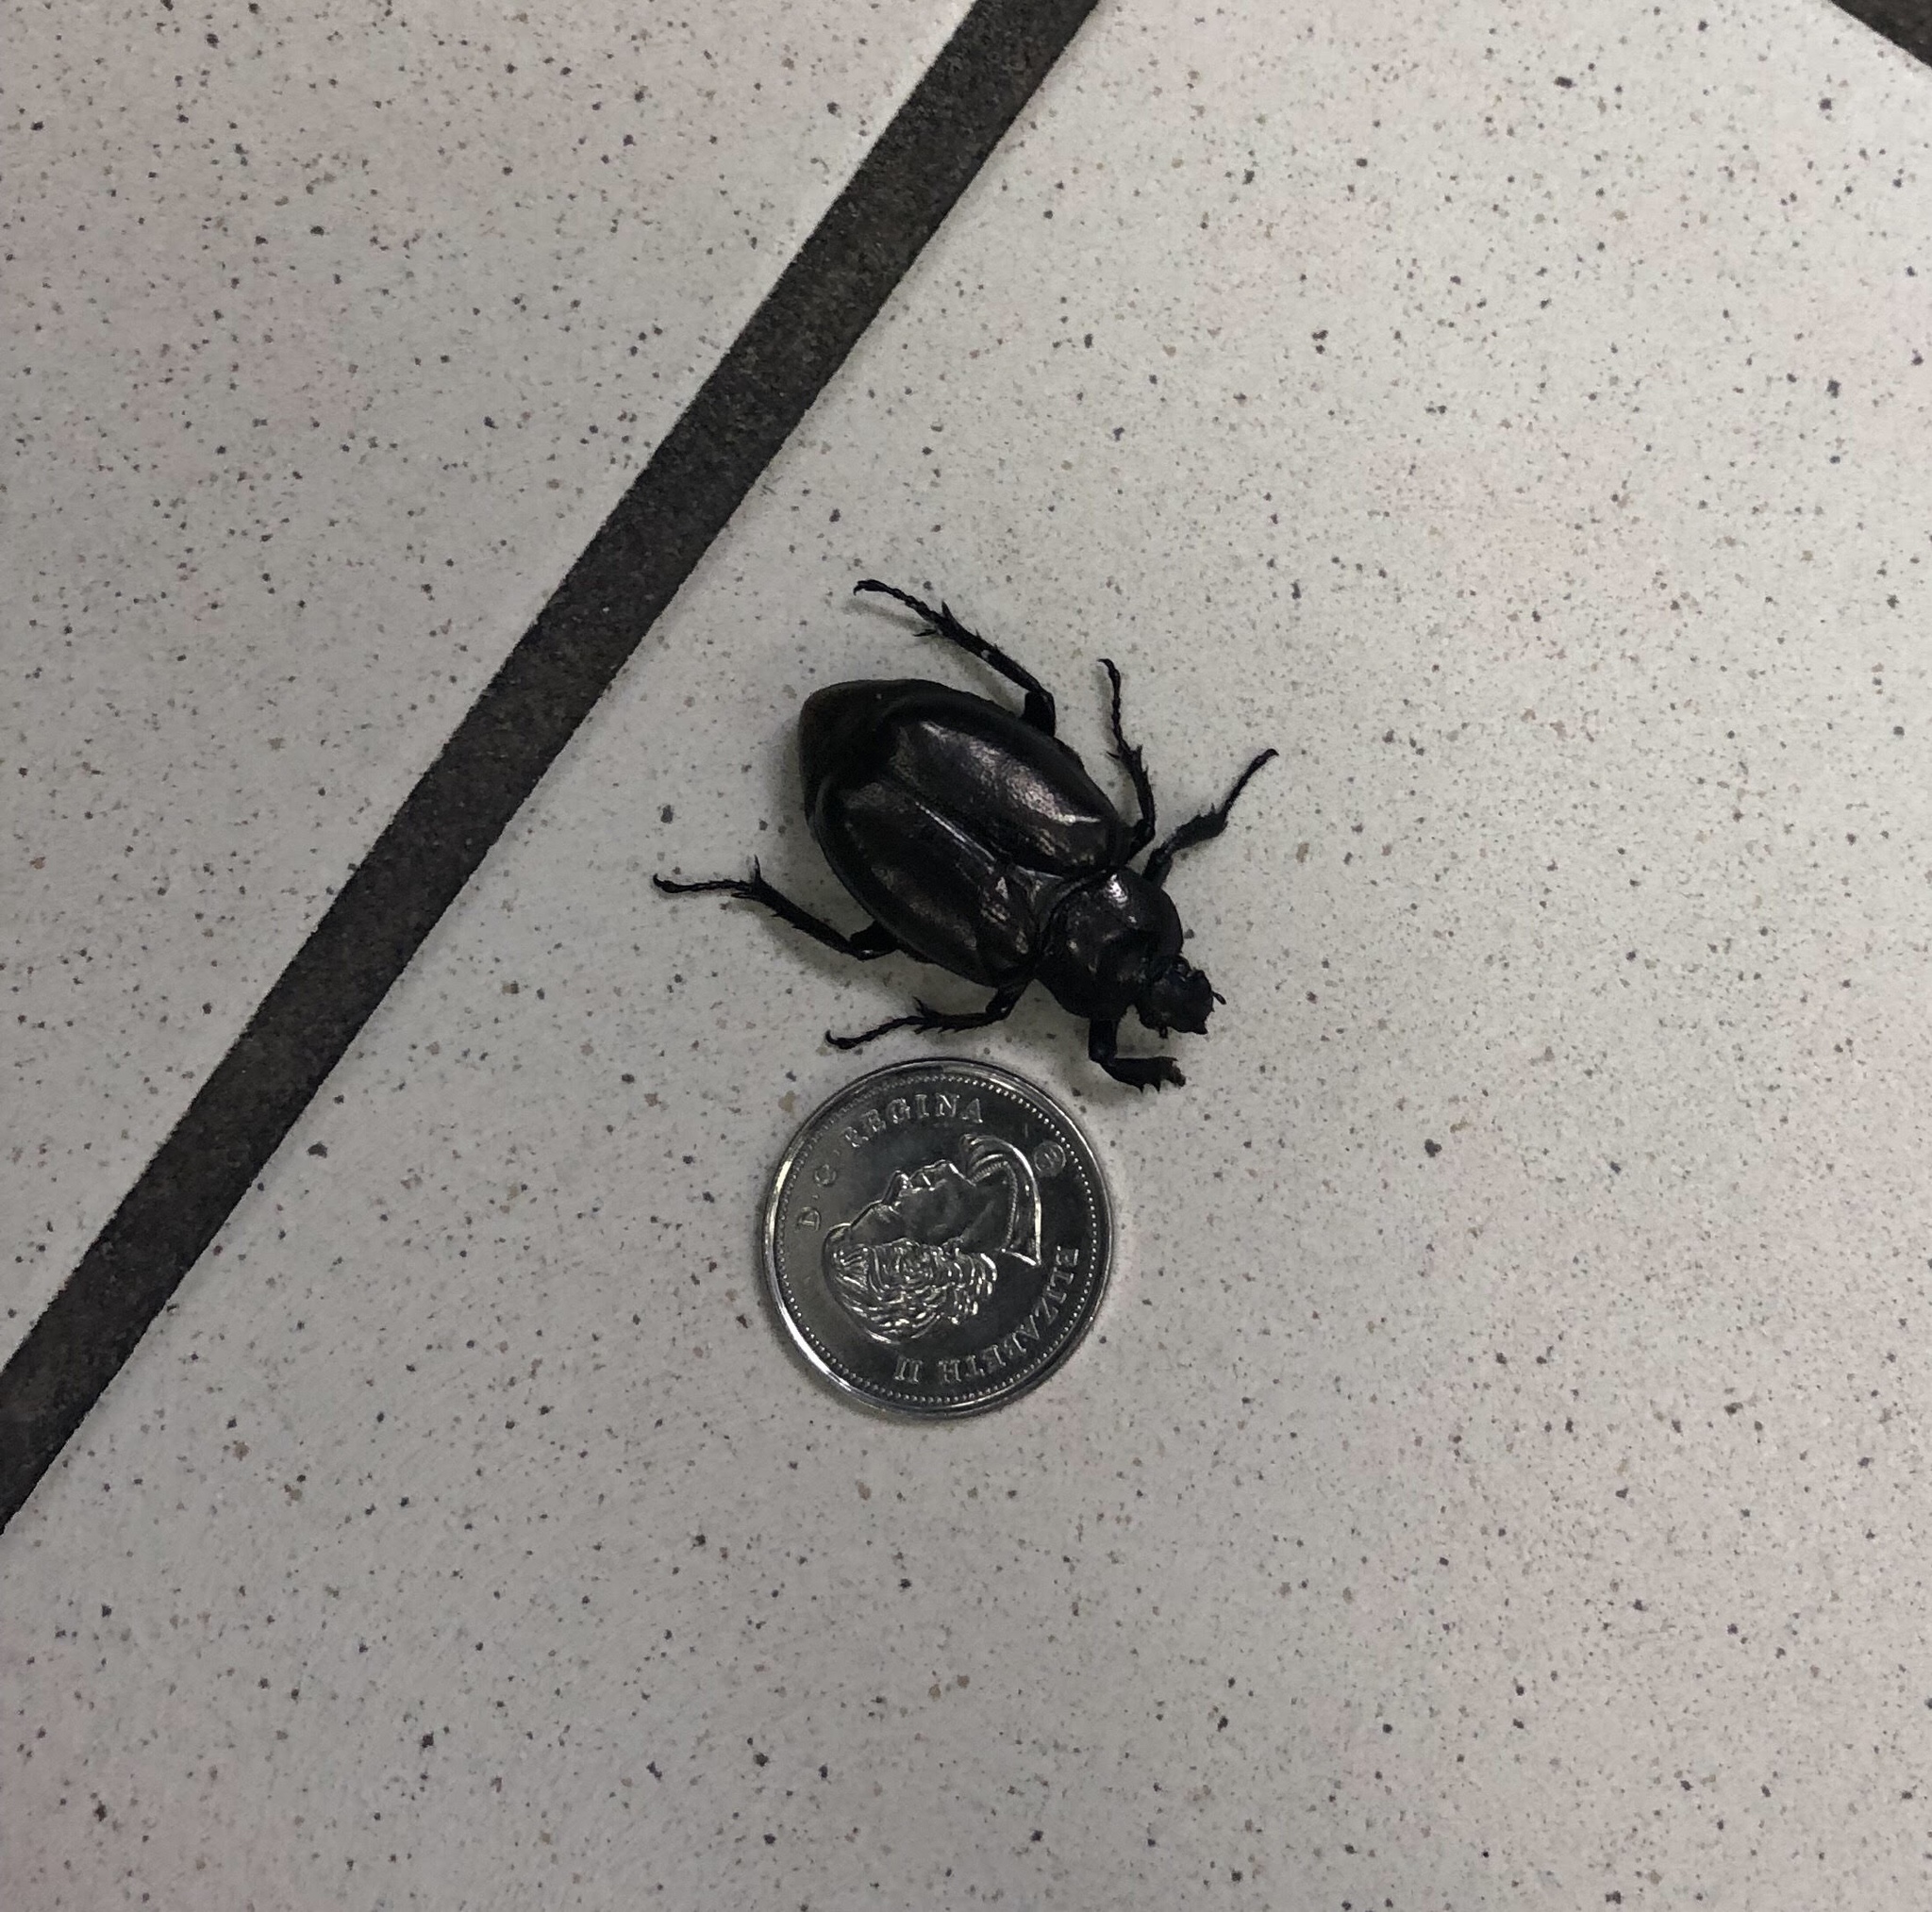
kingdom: Animalia
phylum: Arthropoda
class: Insecta
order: Coleoptera
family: Scarabaeidae
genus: Osmoderma
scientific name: Osmoderma eremicola
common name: Hermit flower beetle
